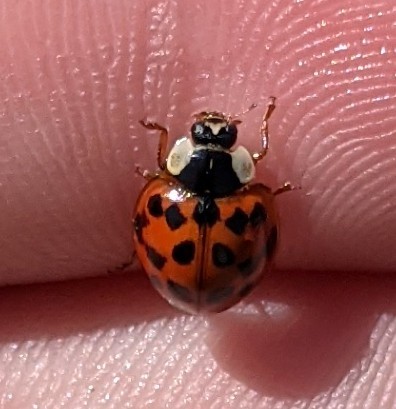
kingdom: Animalia
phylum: Arthropoda
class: Insecta
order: Coleoptera
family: Coccinellidae
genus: Harmonia
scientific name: Harmonia axyridis
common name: Harlequin ladybird
